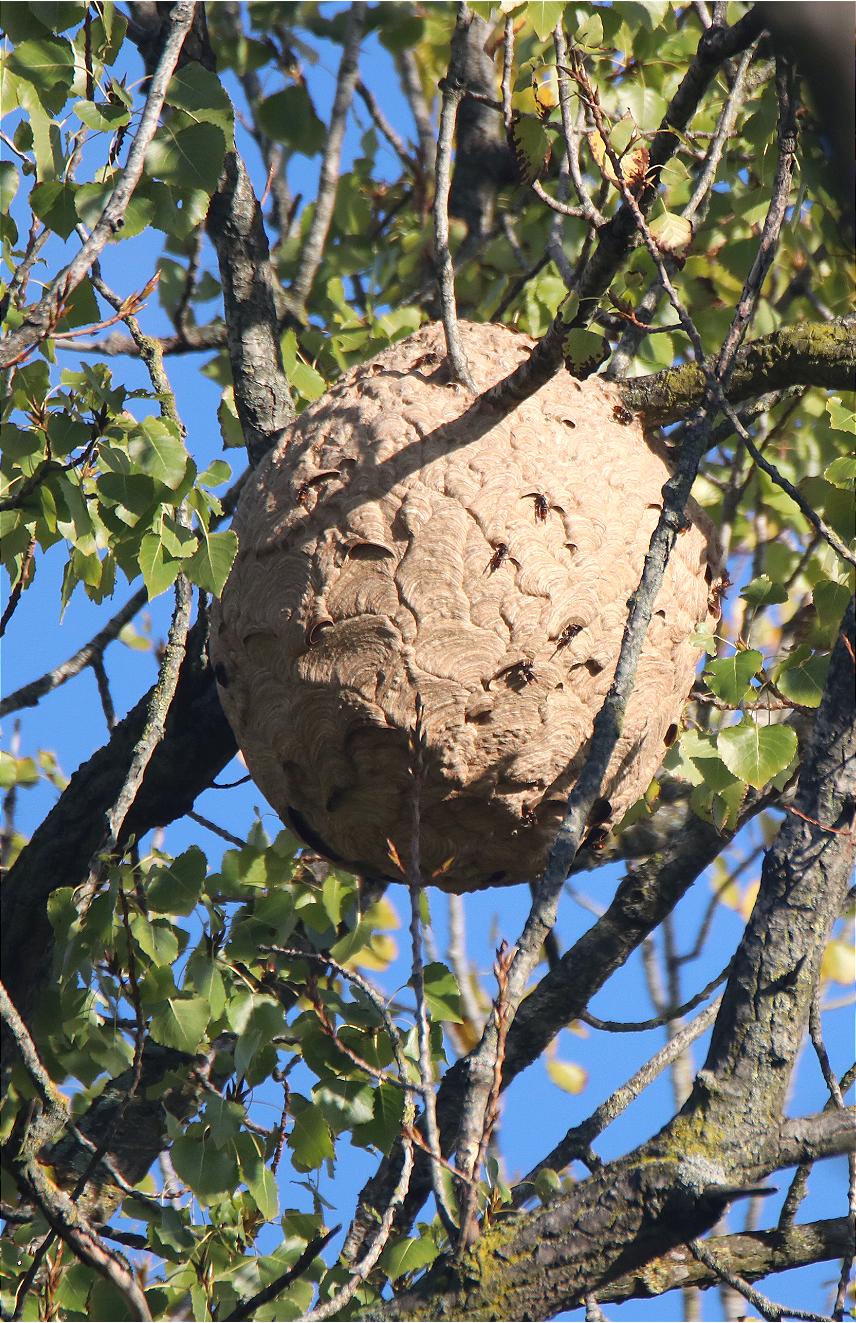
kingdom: Animalia
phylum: Arthropoda
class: Insecta
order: Hymenoptera
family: Vespidae
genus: Vespa
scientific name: Vespa velutina
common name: Asian hornet
